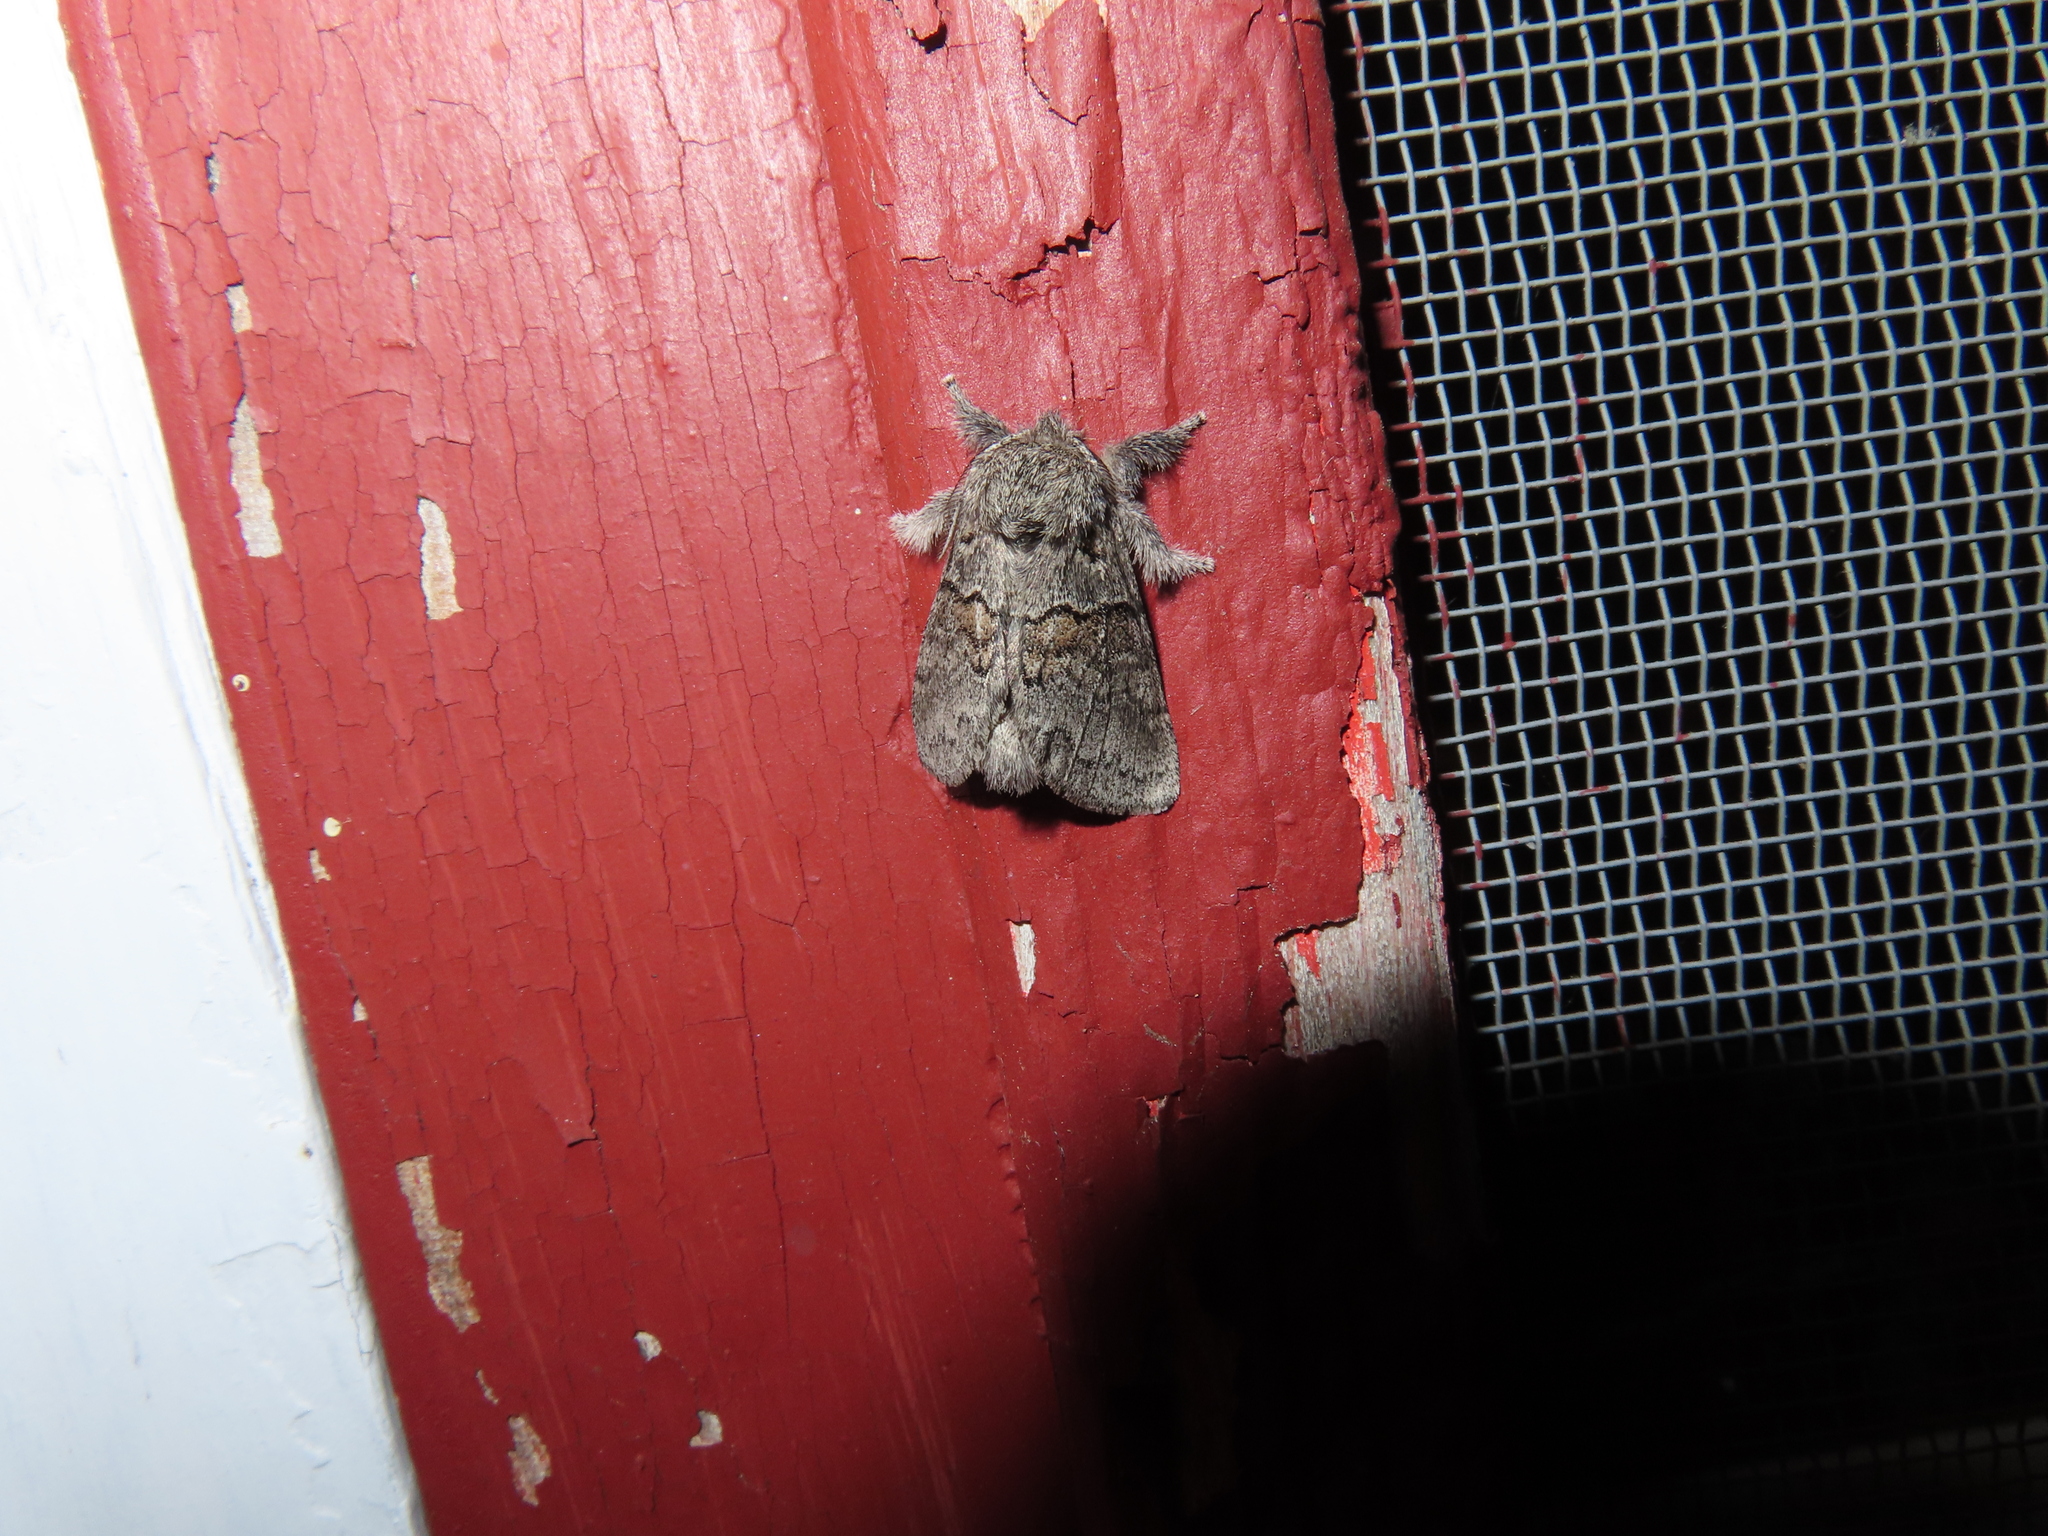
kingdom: Animalia
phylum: Arthropoda
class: Insecta
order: Lepidoptera
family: Notodontidae
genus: Gluphisia
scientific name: Gluphisia septentrionis
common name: Common gluphisia
